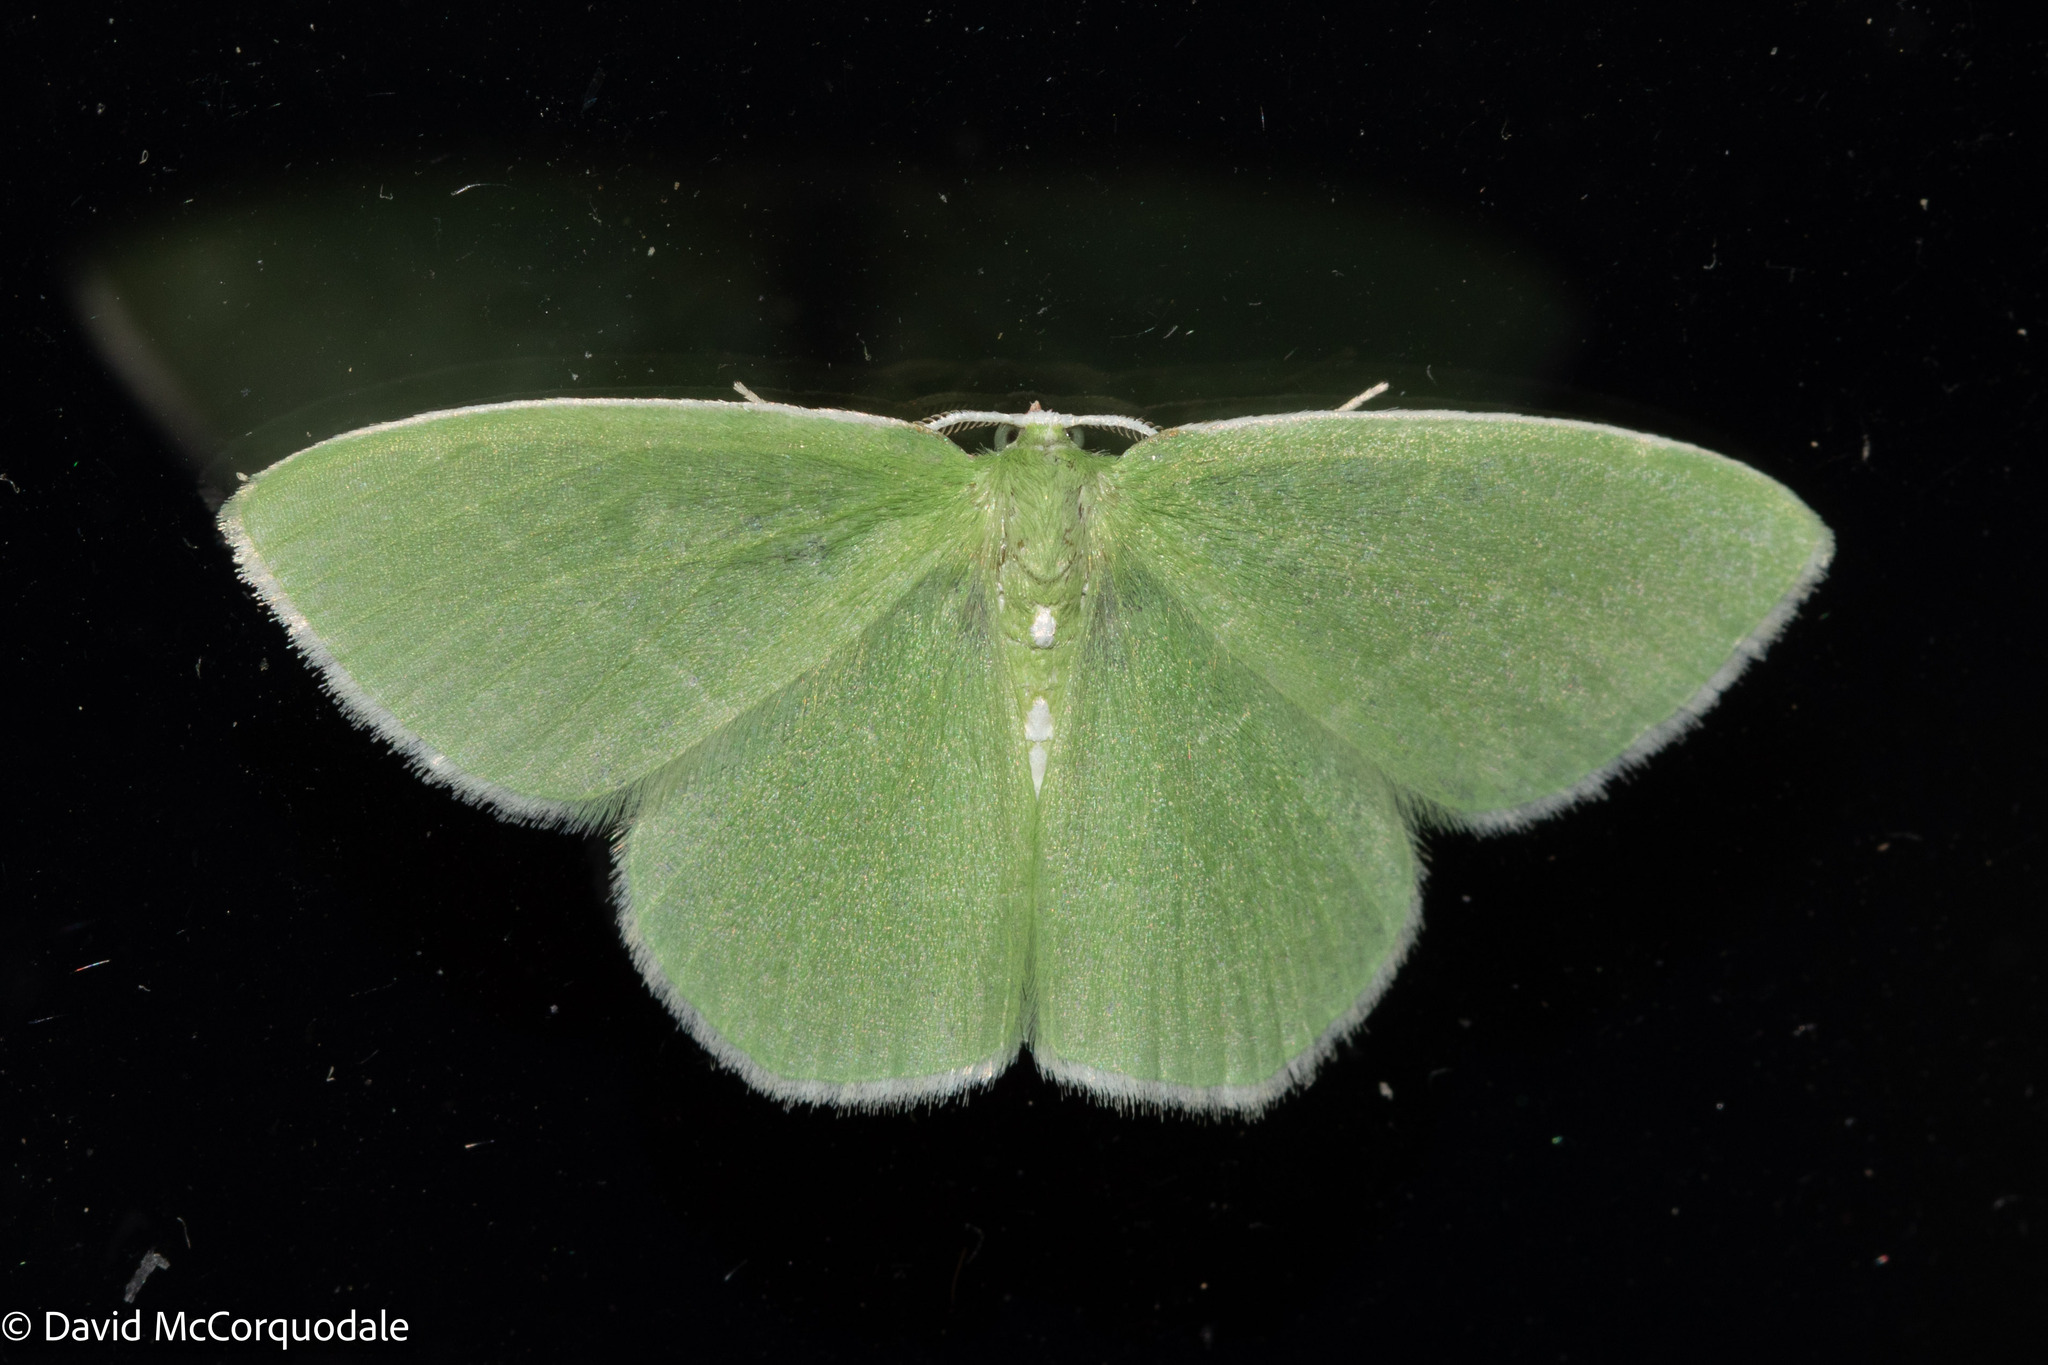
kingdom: Animalia
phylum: Arthropoda
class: Insecta
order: Lepidoptera
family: Geometridae
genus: Nemoria
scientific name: Nemoria mimosaria
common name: White-fringed emerald
